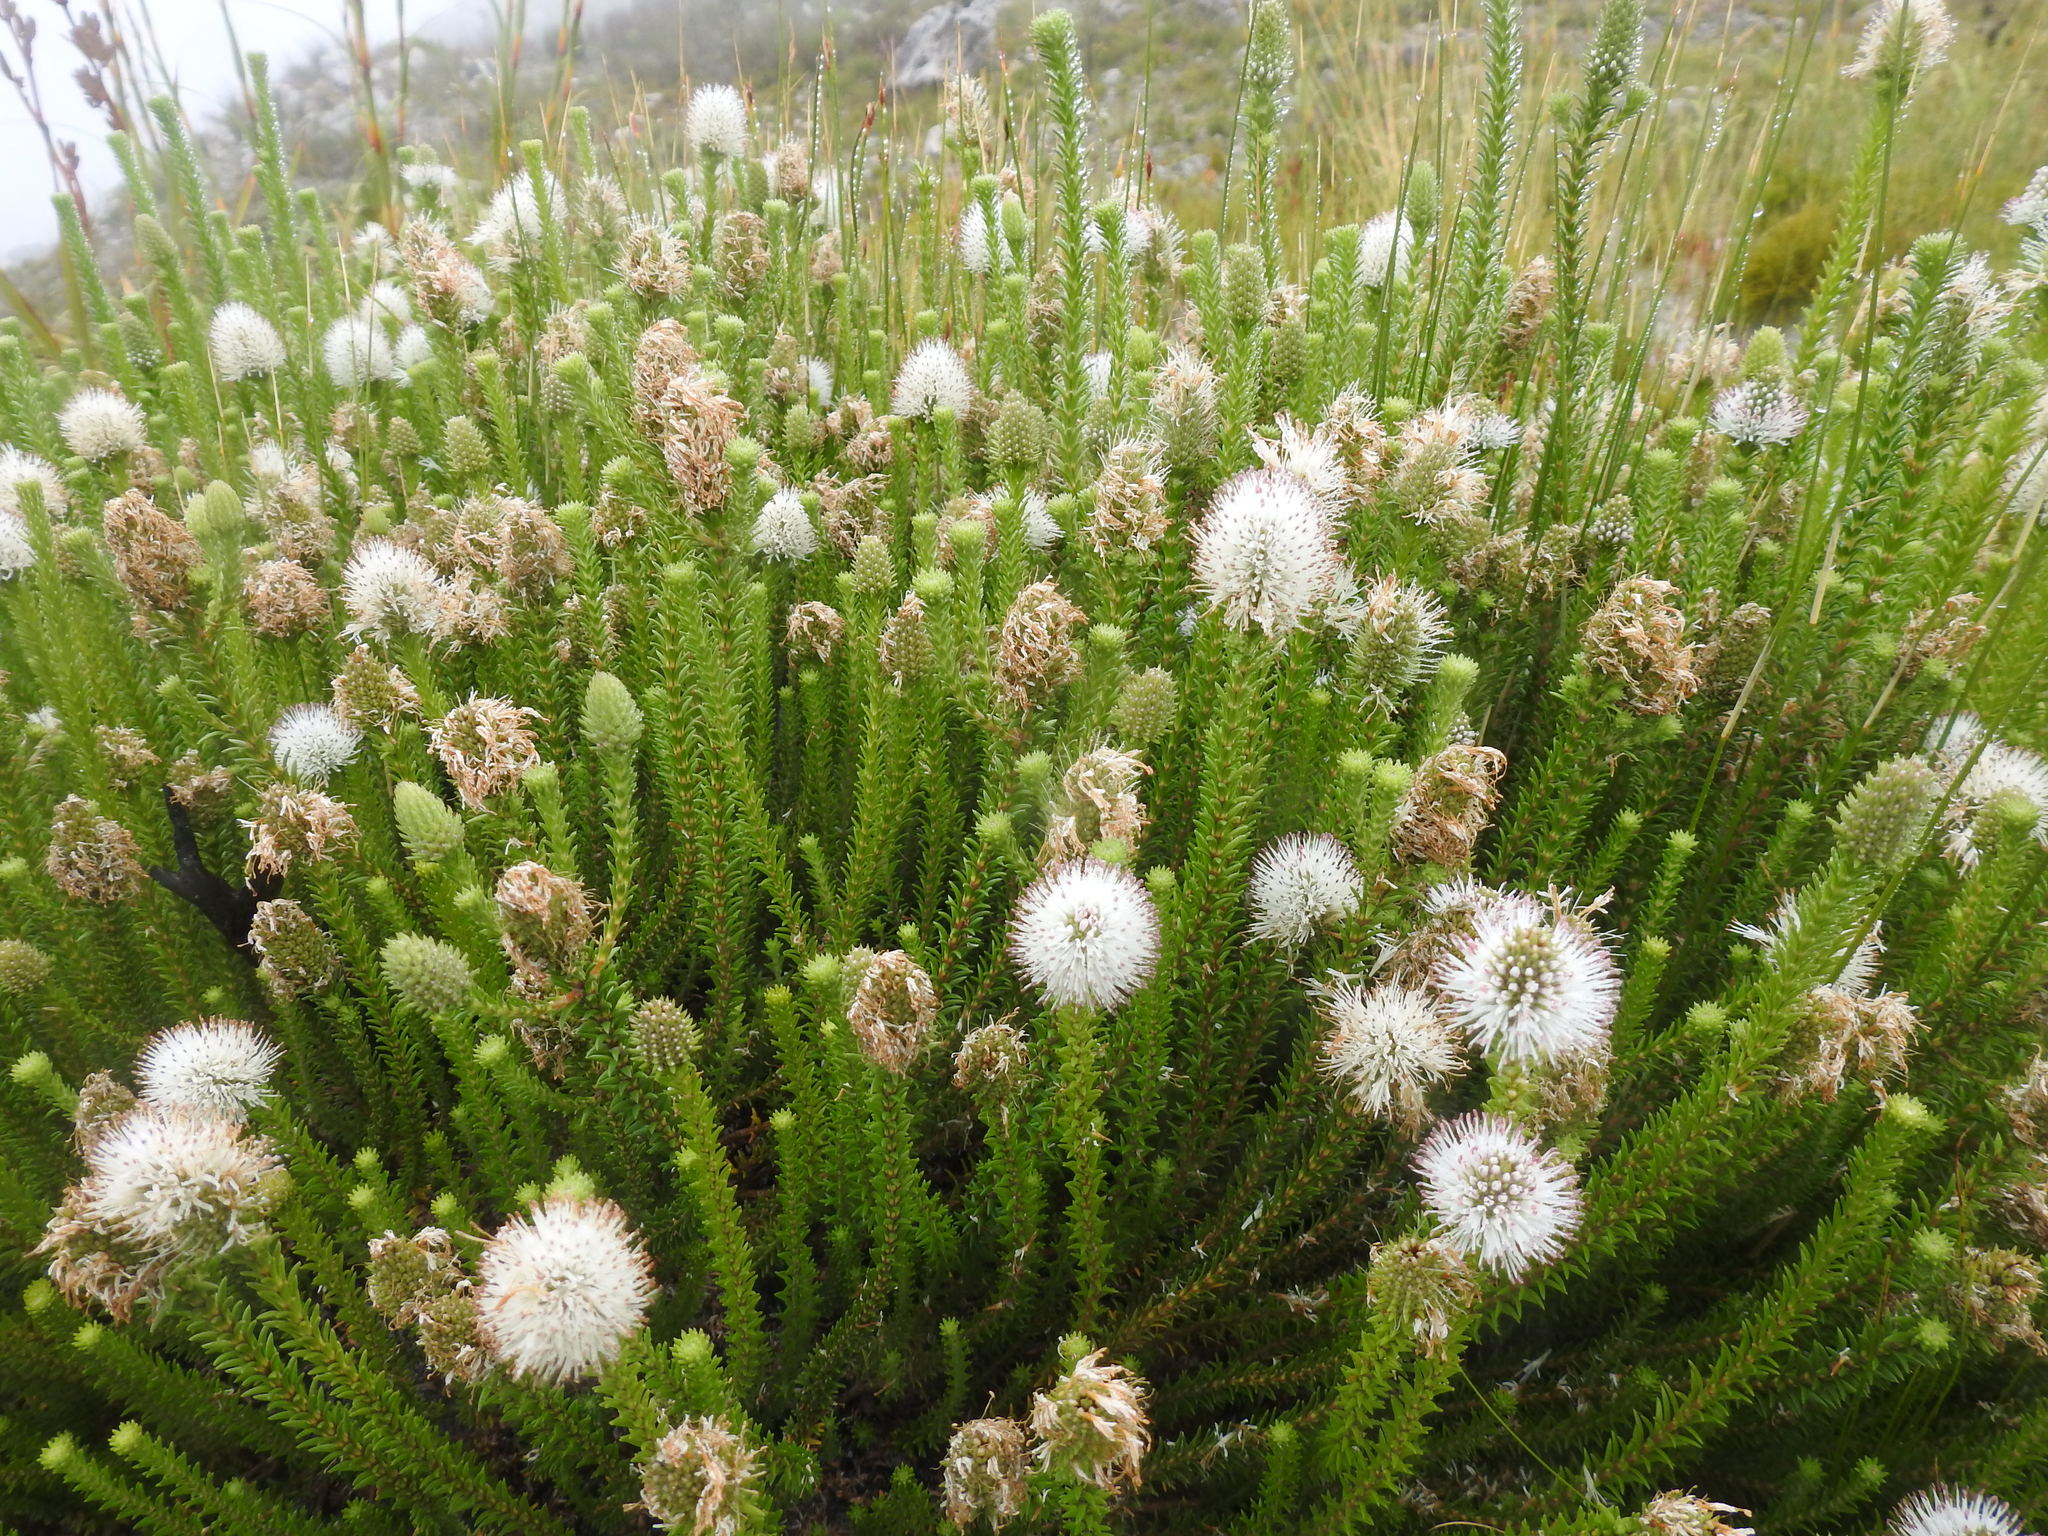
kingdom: Plantae
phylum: Tracheophyta
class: Magnoliopsida
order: Lamiales
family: Stilbaceae
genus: Stilbe
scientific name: Stilbe albiflora
